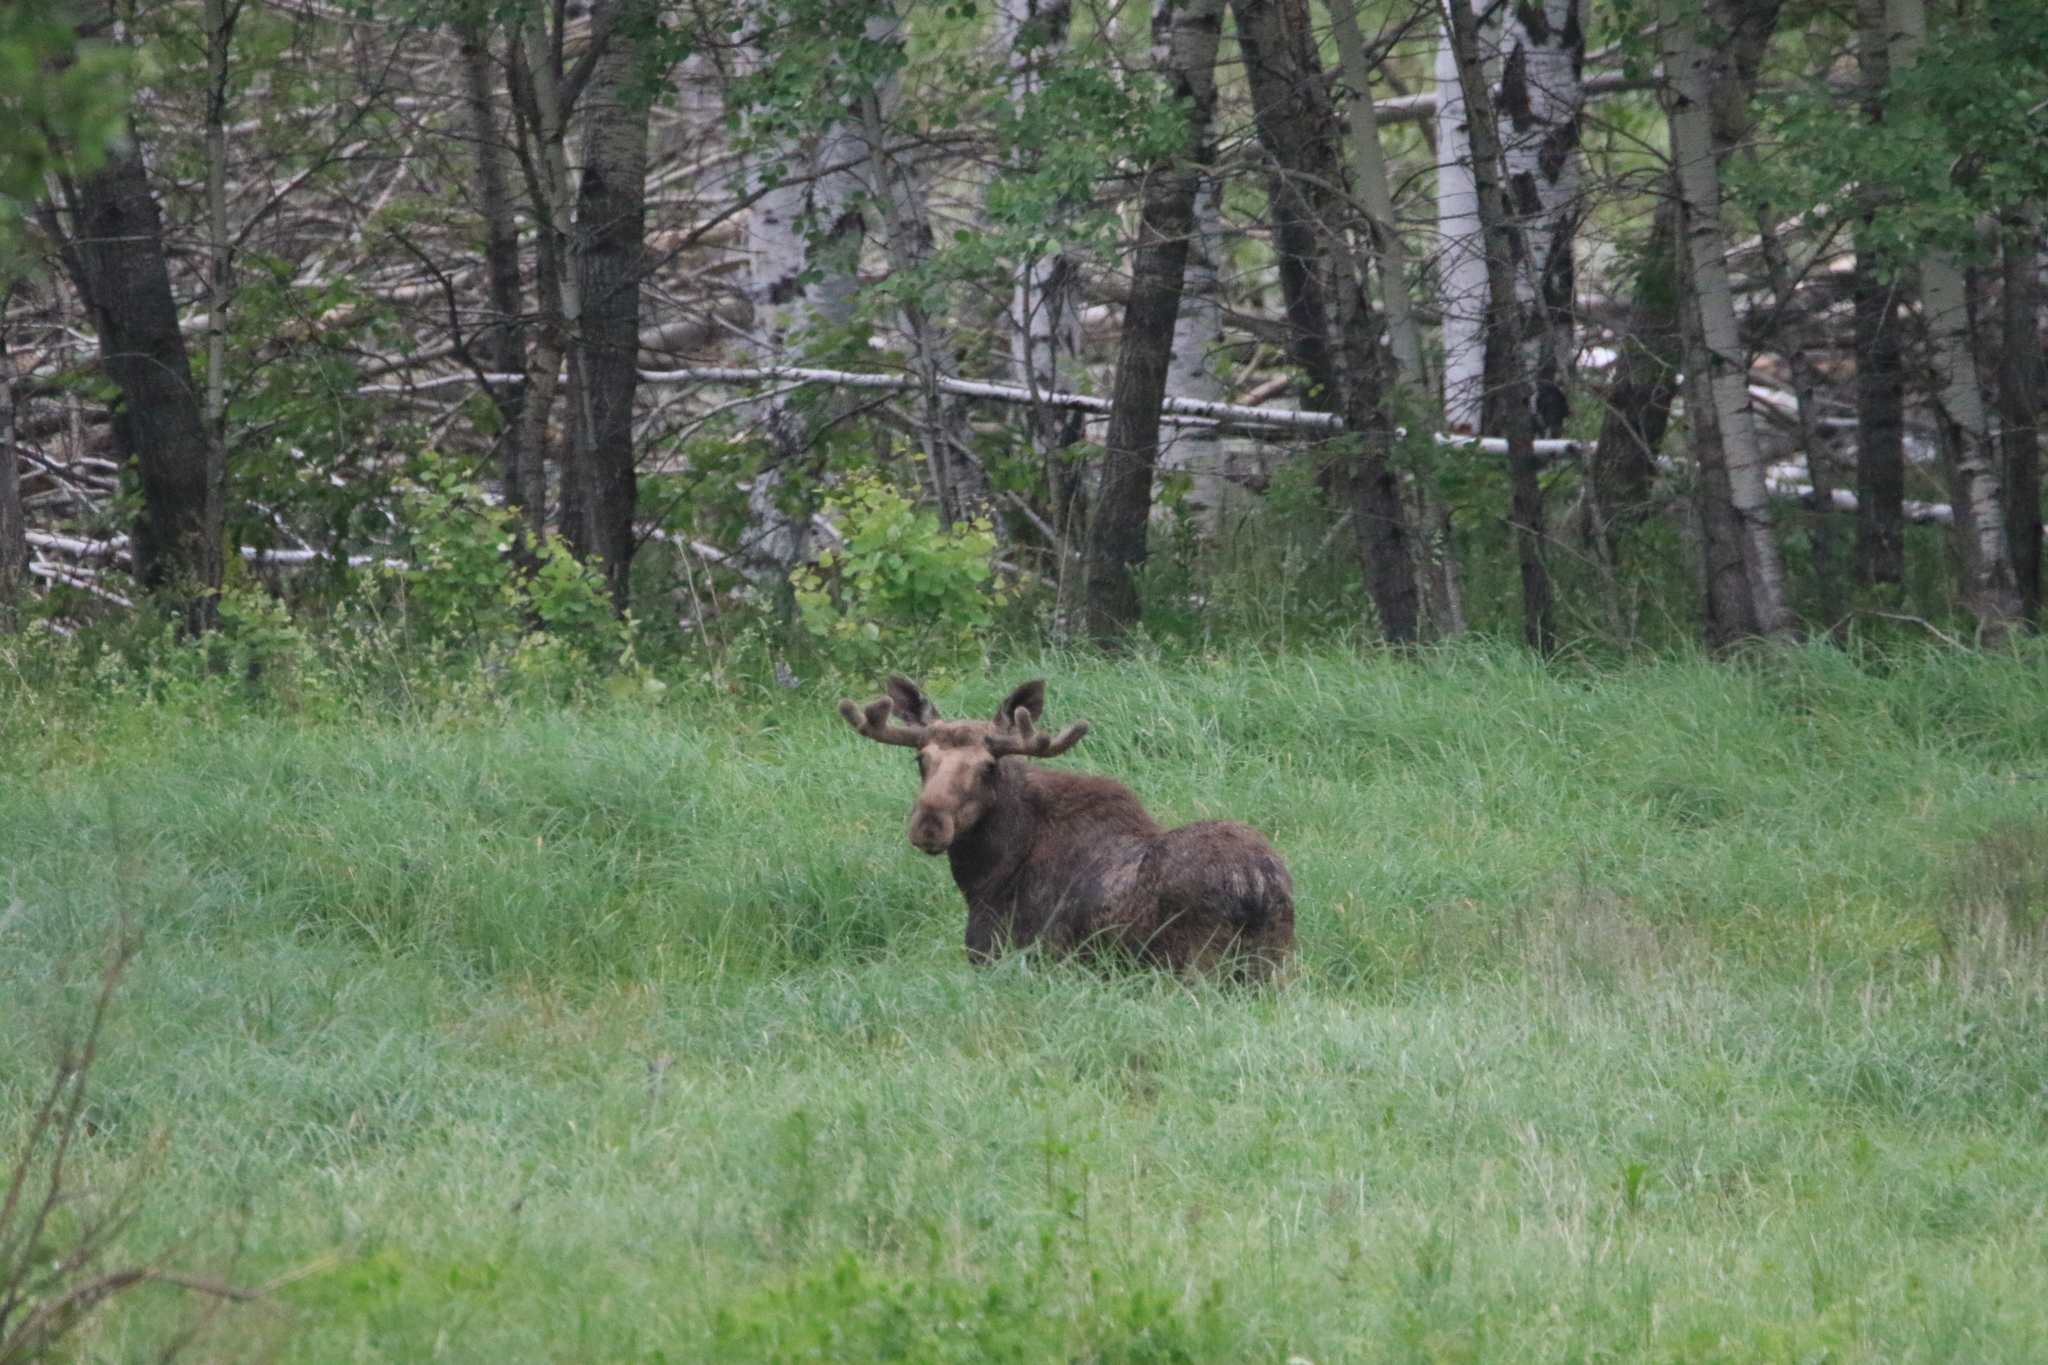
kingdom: Animalia
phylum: Chordata
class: Mammalia
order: Artiodactyla
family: Cervidae
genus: Alces
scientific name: Alces alces
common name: Moose
